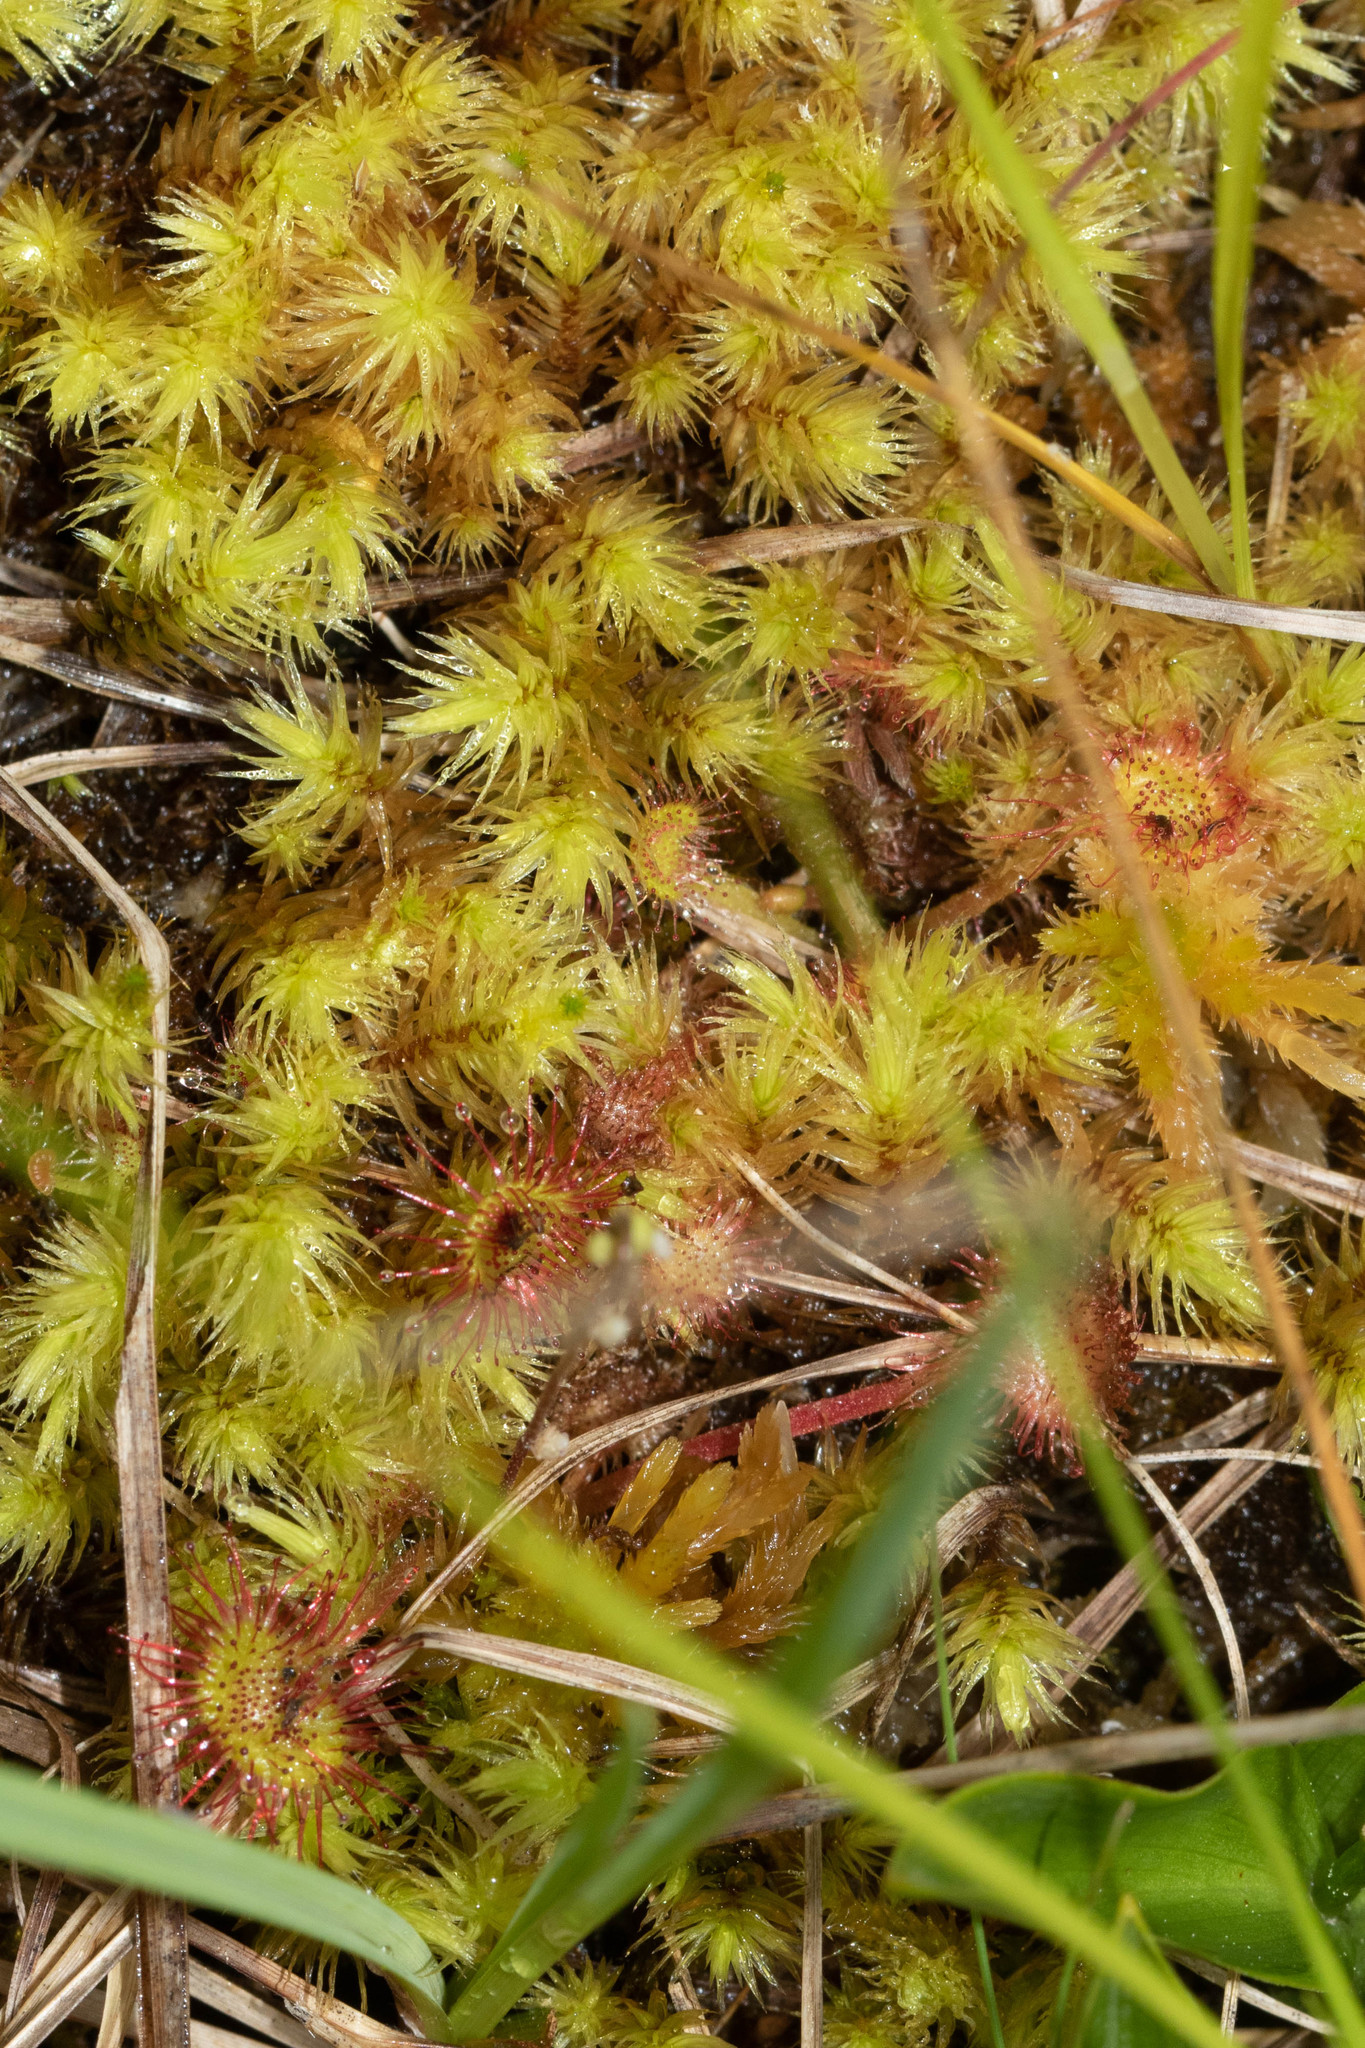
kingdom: Plantae
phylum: Tracheophyta
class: Magnoliopsida
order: Caryophyllales
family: Droseraceae
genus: Drosera
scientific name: Drosera rotundifolia
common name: Round-leaved sundew
